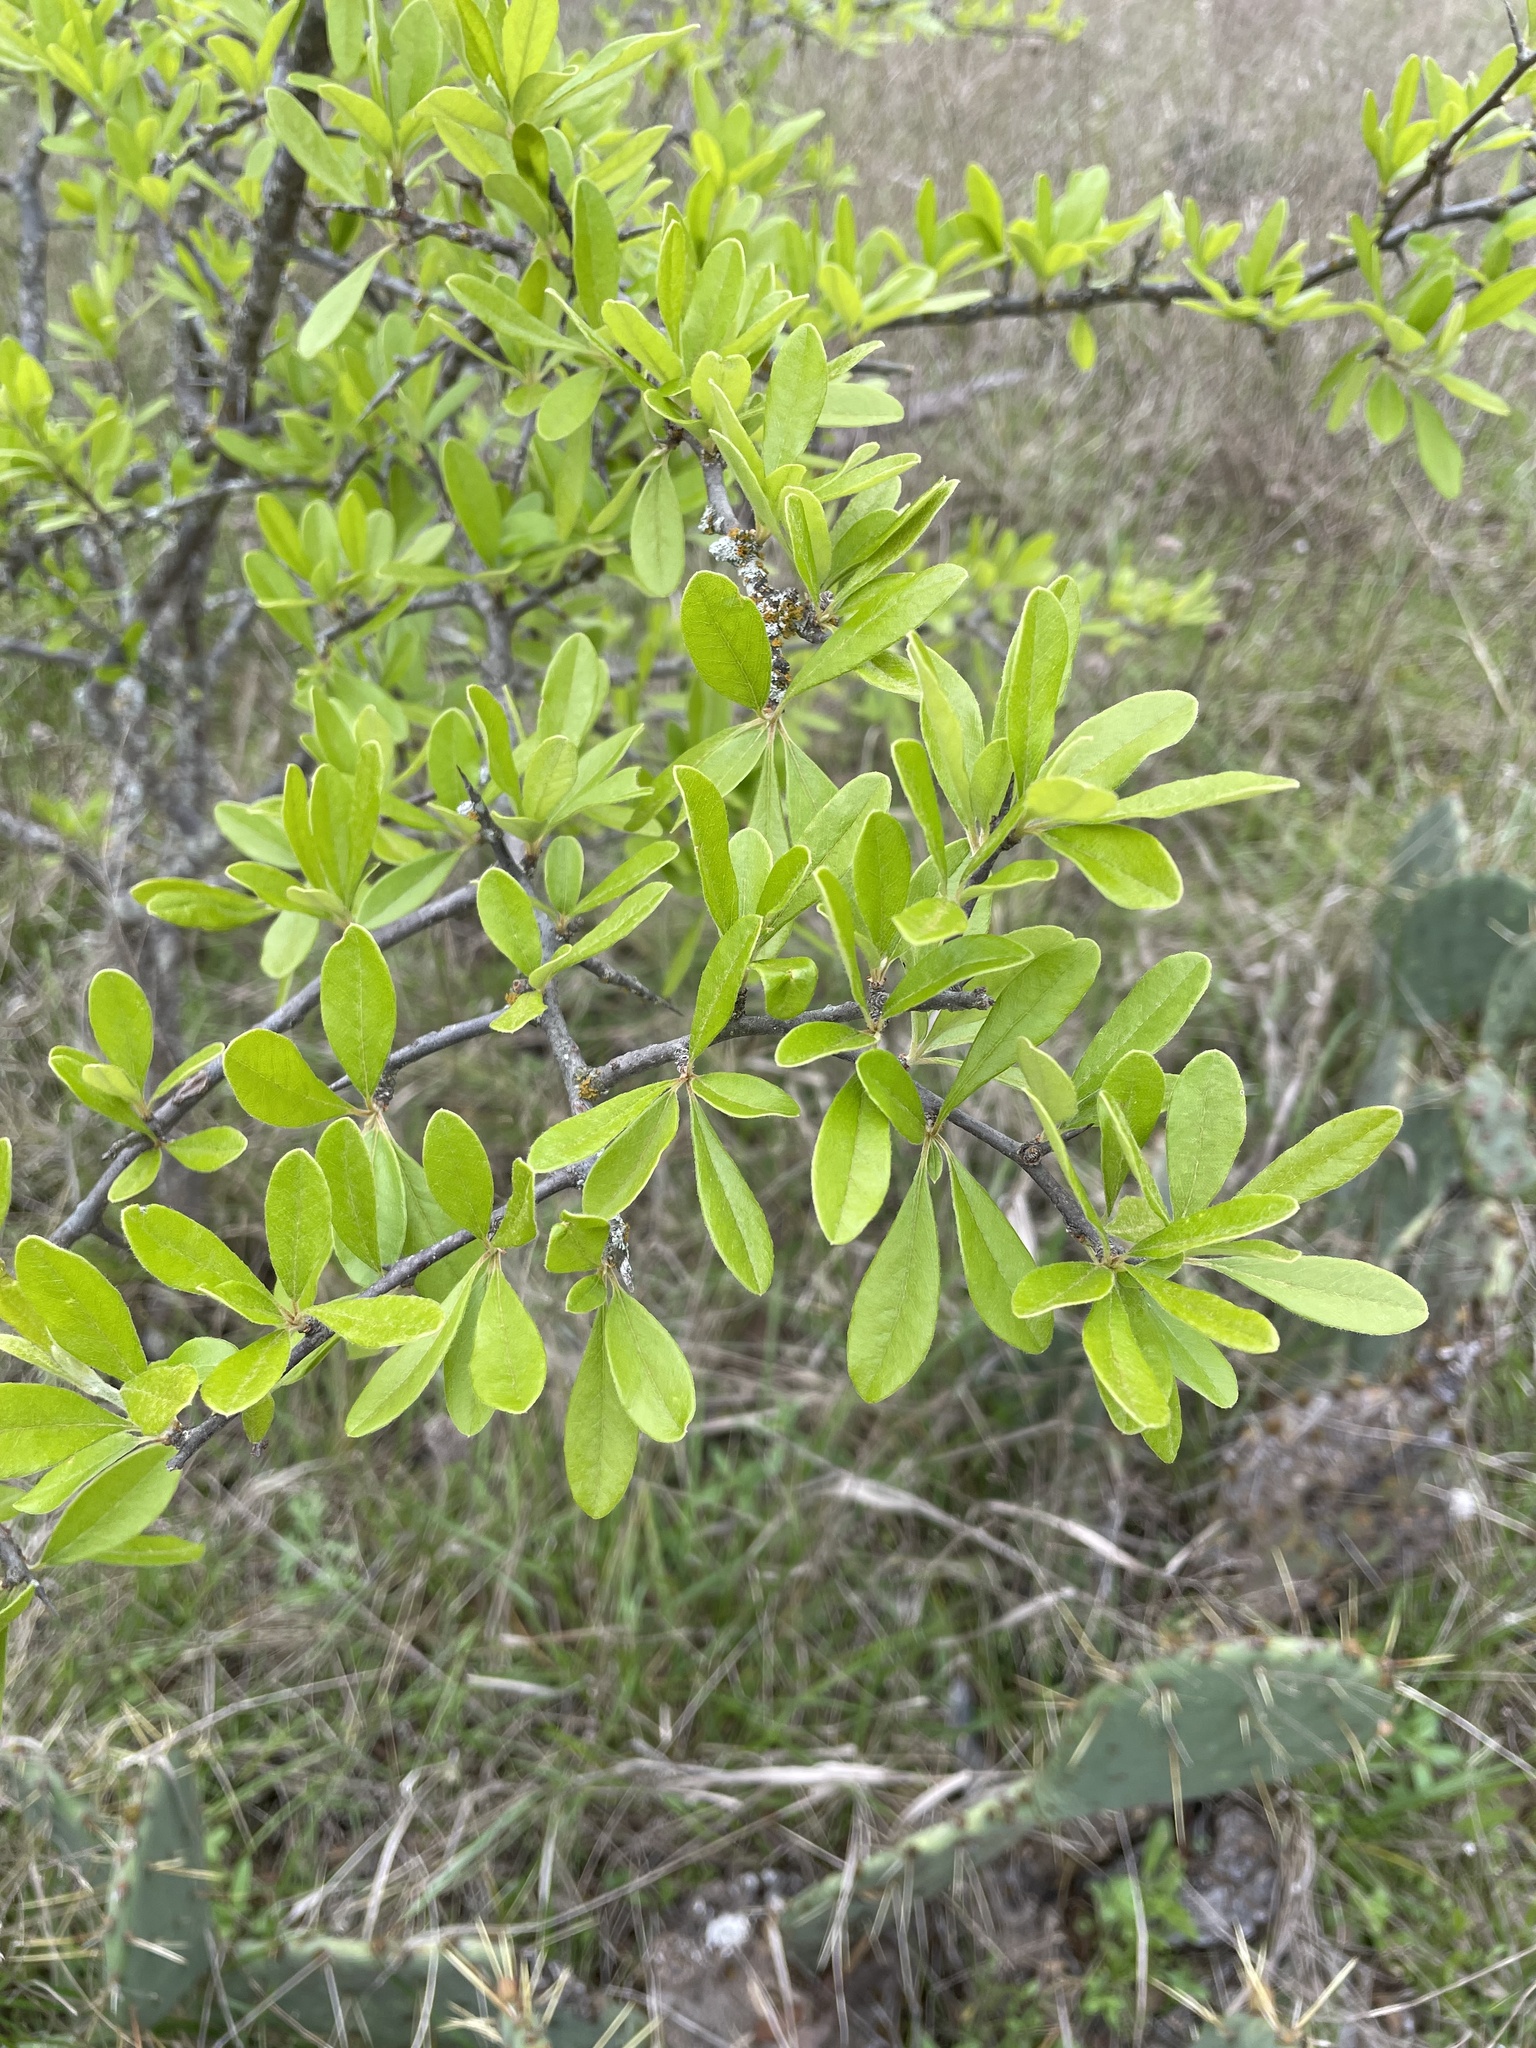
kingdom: Plantae
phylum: Tracheophyta
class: Magnoliopsida
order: Ericales
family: Sapotaceae
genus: Sideroxylon
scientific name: Sideroxylon lanuginosum
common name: Chittamwood
